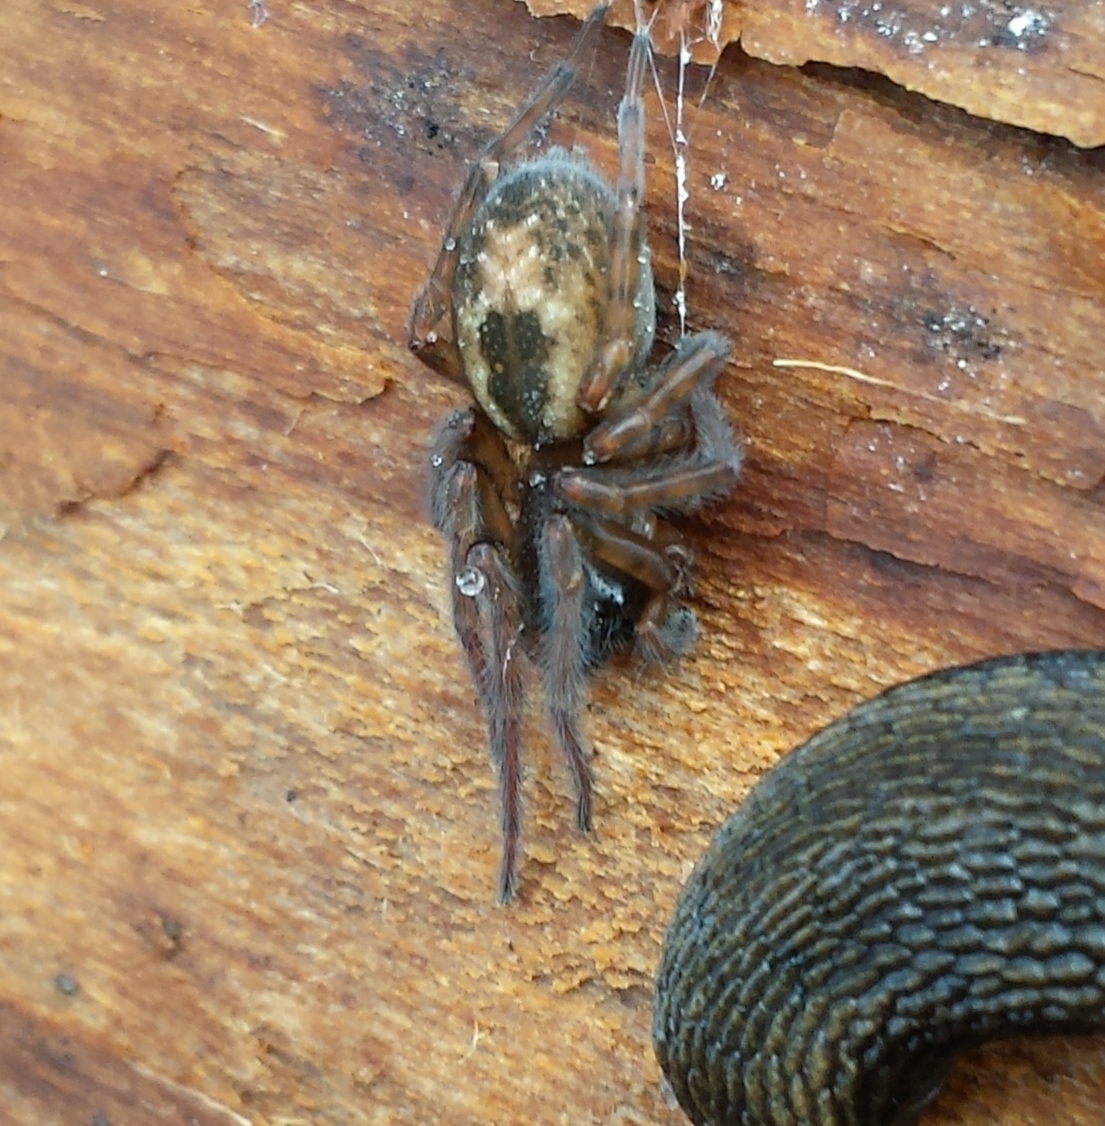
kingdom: Animalia
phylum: Arthropoda
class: Arachnida
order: Araneae
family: Amaurobiidae
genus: Amaurobius
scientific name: Amaurobius fenestralis
